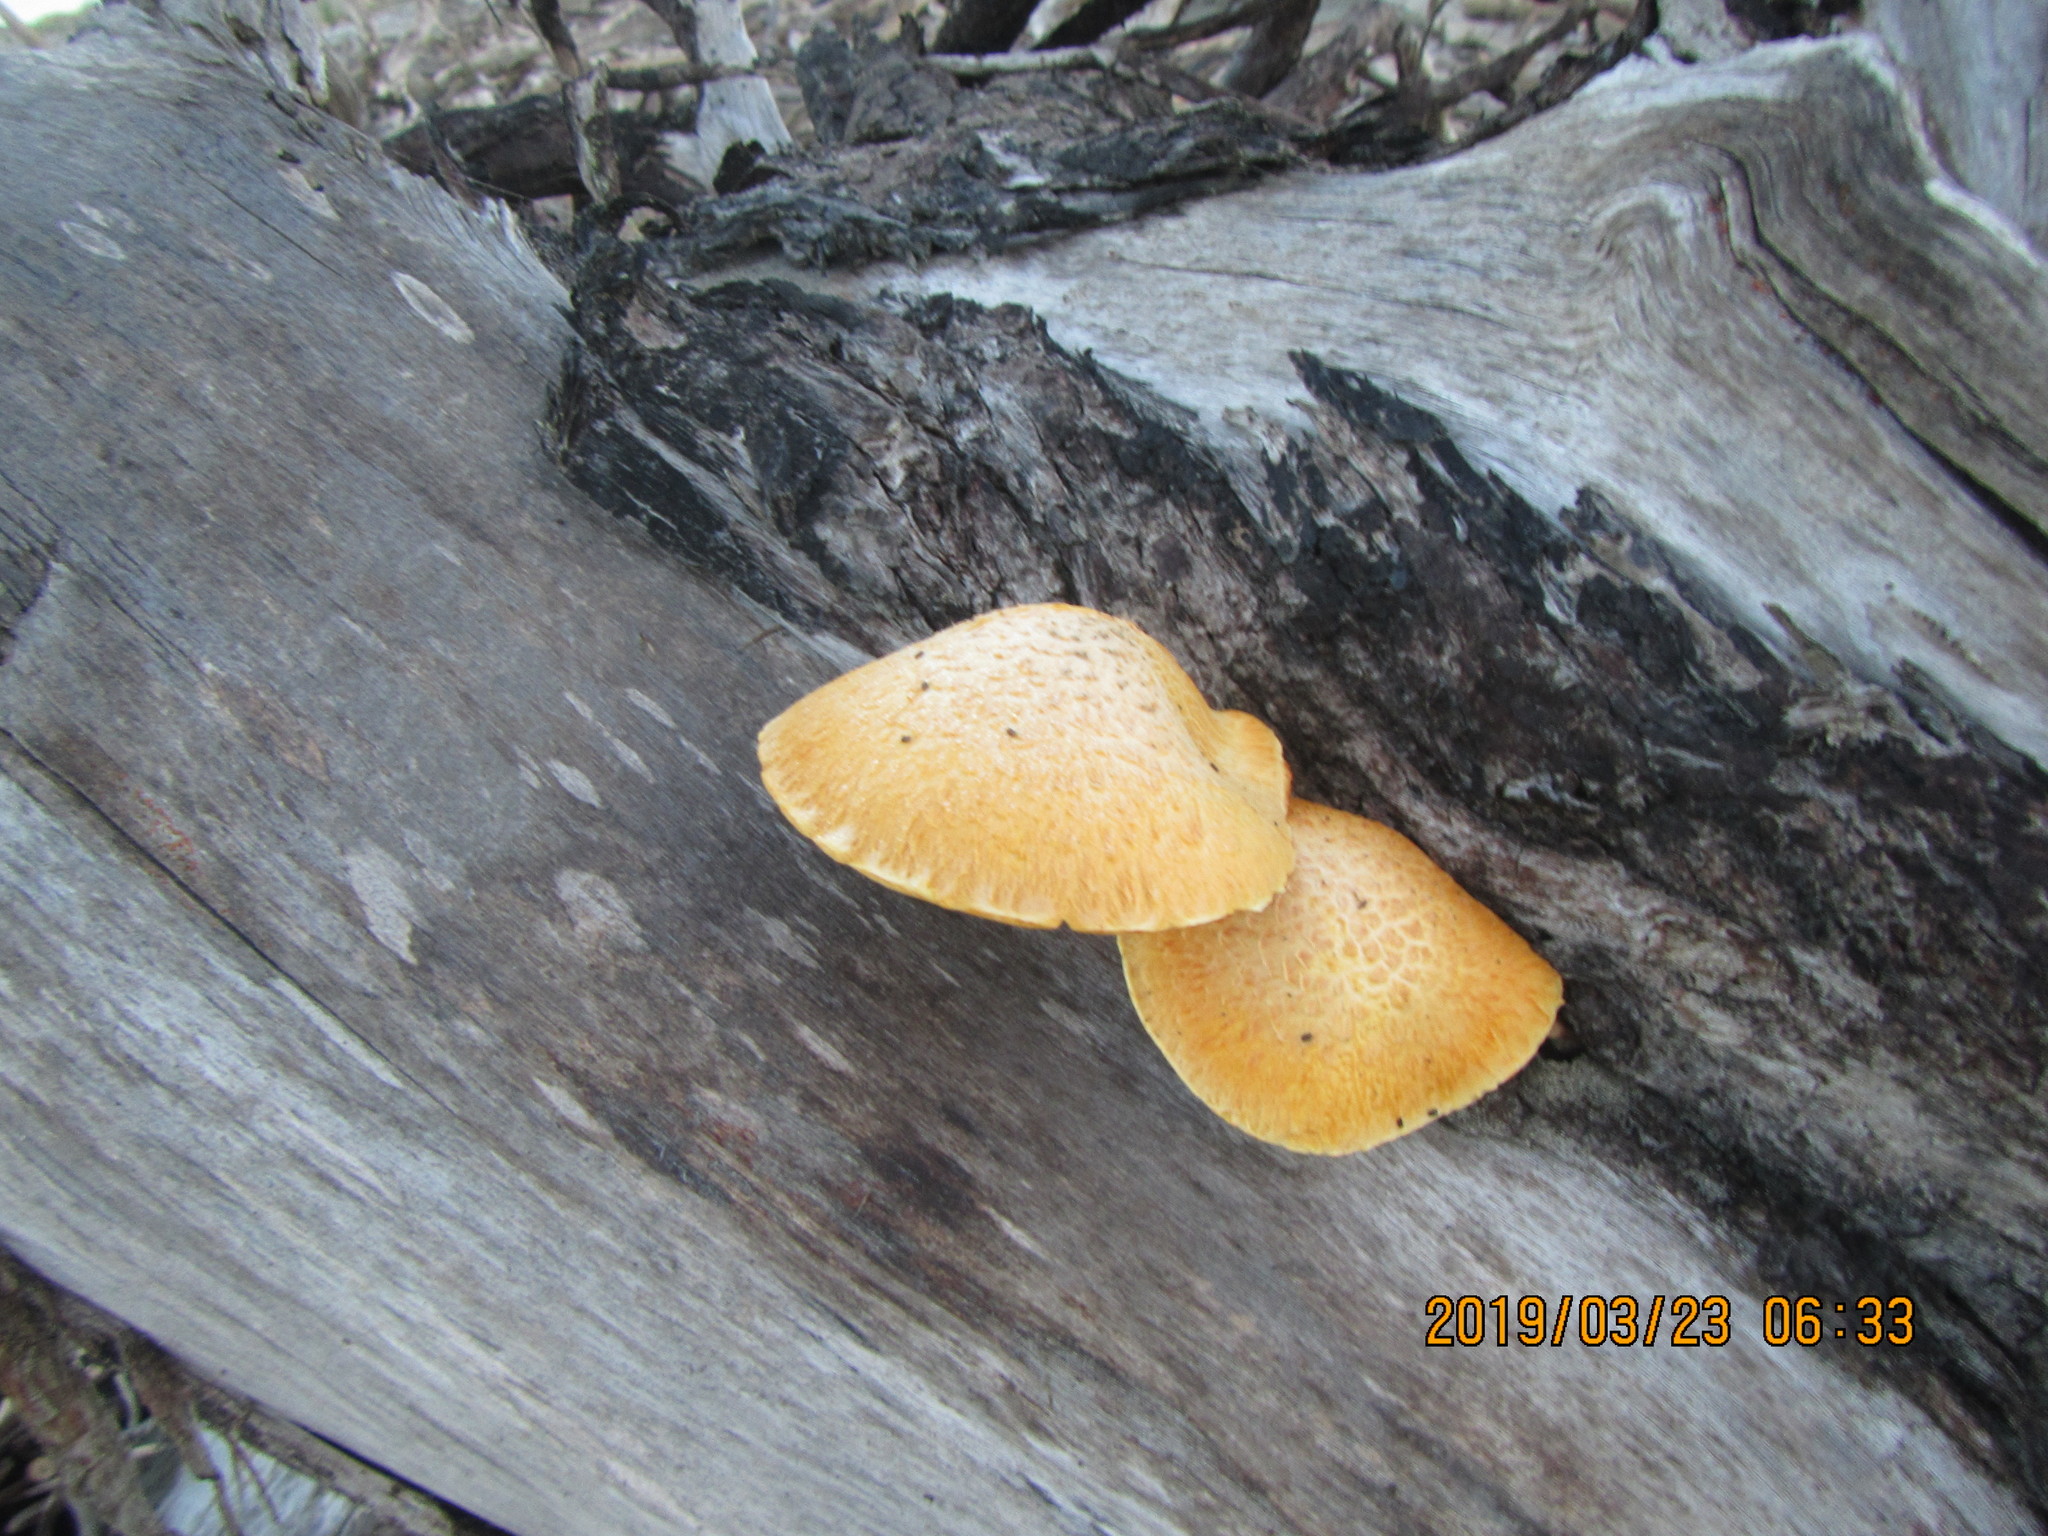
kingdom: Fungi
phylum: Basidiomycota
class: Agaricomycetes
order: Agaricales
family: Hymenogastraceae
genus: Gymnopilus
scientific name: Gymnopilus junonius
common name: Spectacular rustgill
